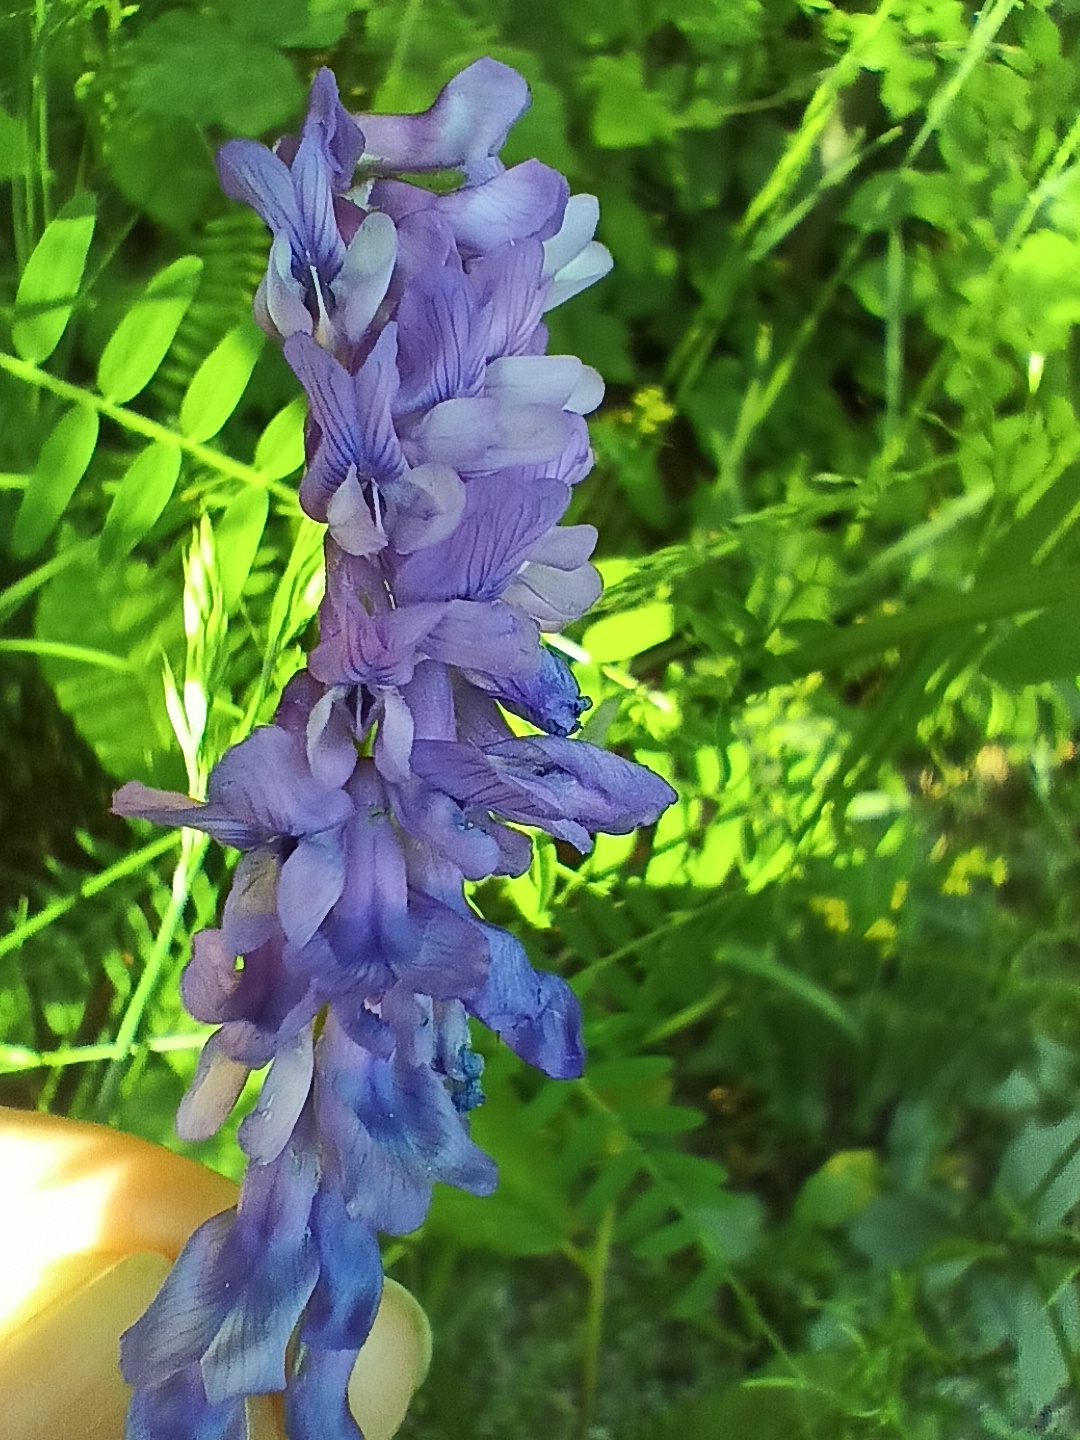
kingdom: Plantae
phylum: Tracheophyta
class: Magnoliopsida
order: Fabales
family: Fabaceae
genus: Vicia
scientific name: Vicia cracca
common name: Bird vetch
